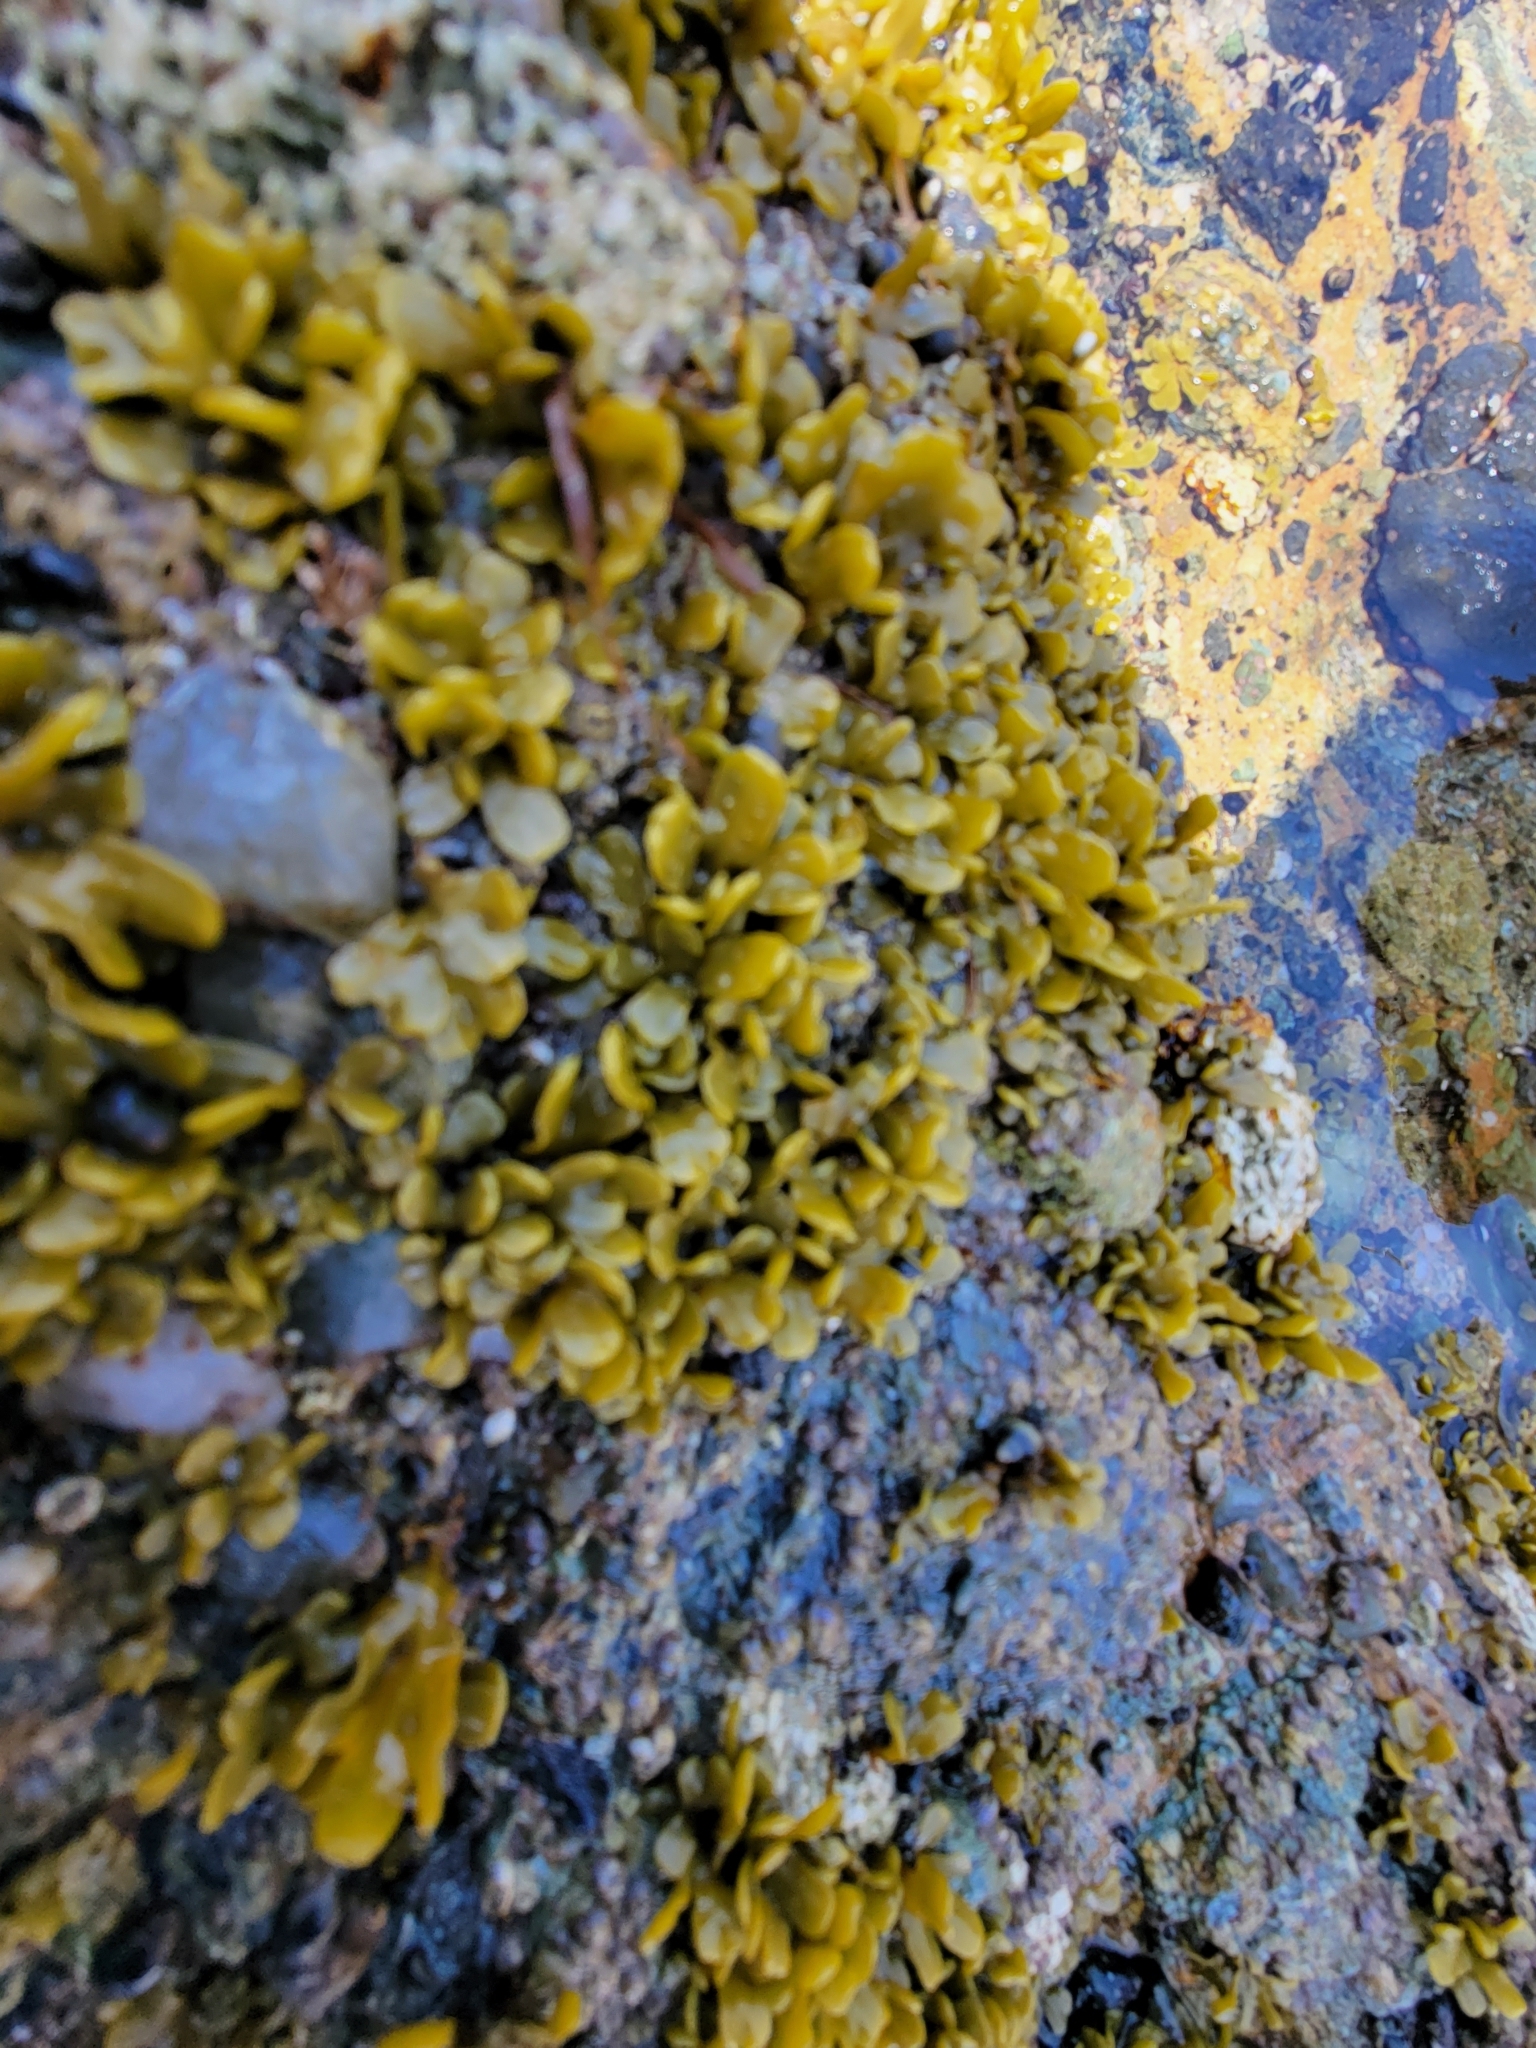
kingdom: Chromista
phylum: Ochrophyta
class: Phaeophyceae
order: Fucales
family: Fucaceae
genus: Pelvetiopsis
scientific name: Pelvetiopsis
